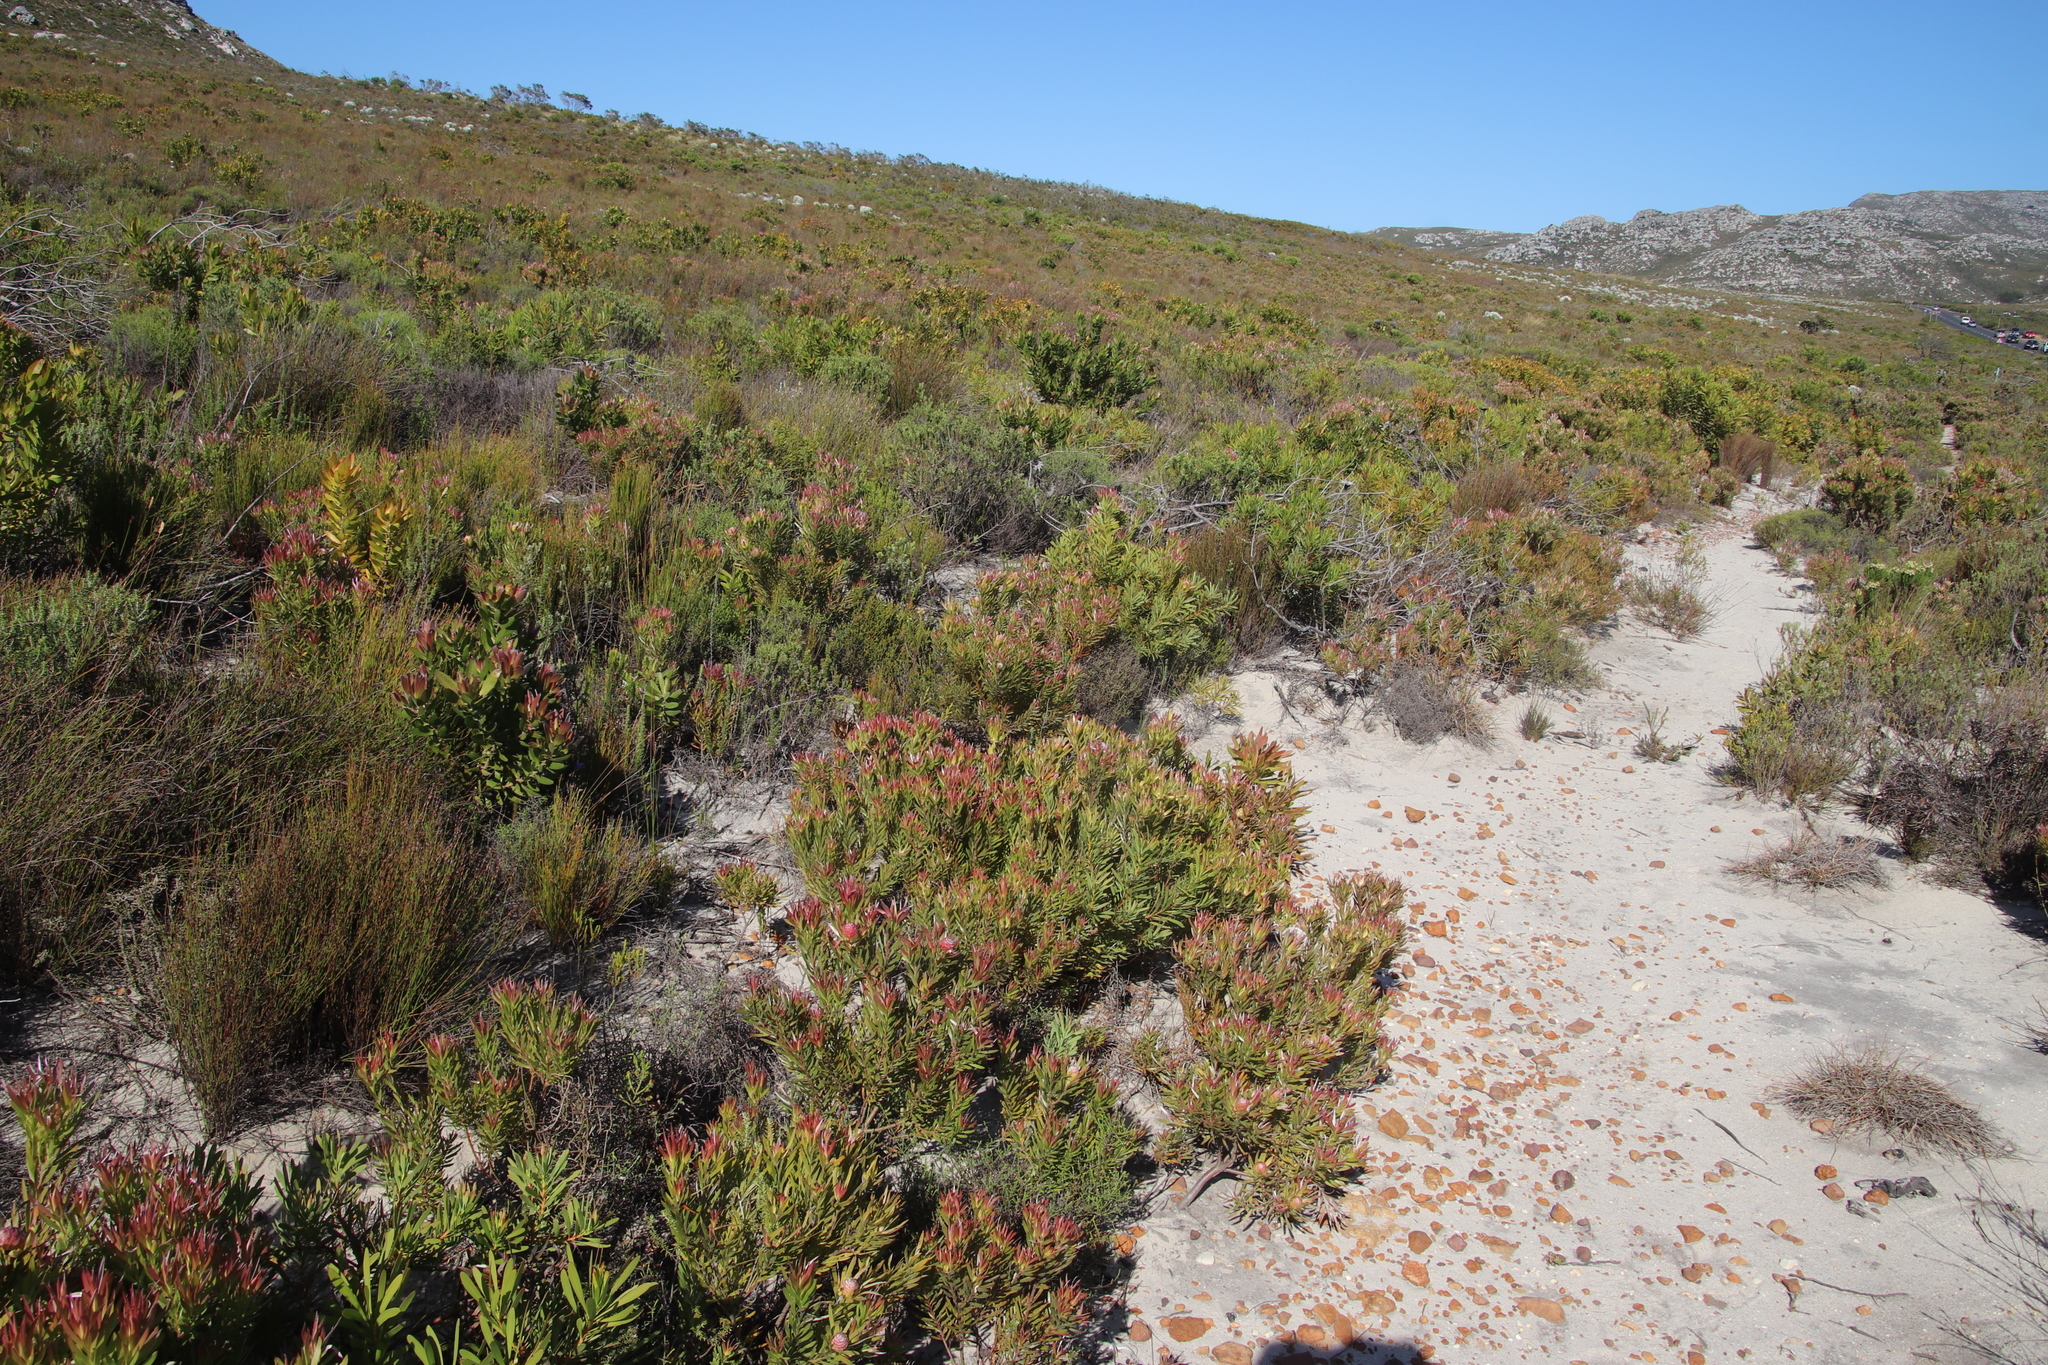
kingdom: Plantae
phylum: Tracheophyta
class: Magnoliopsida
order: Proteales
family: Proteaceae
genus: Leucadendron
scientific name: Leucadendron xanthoconus
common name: Sickle-leaf conebush
